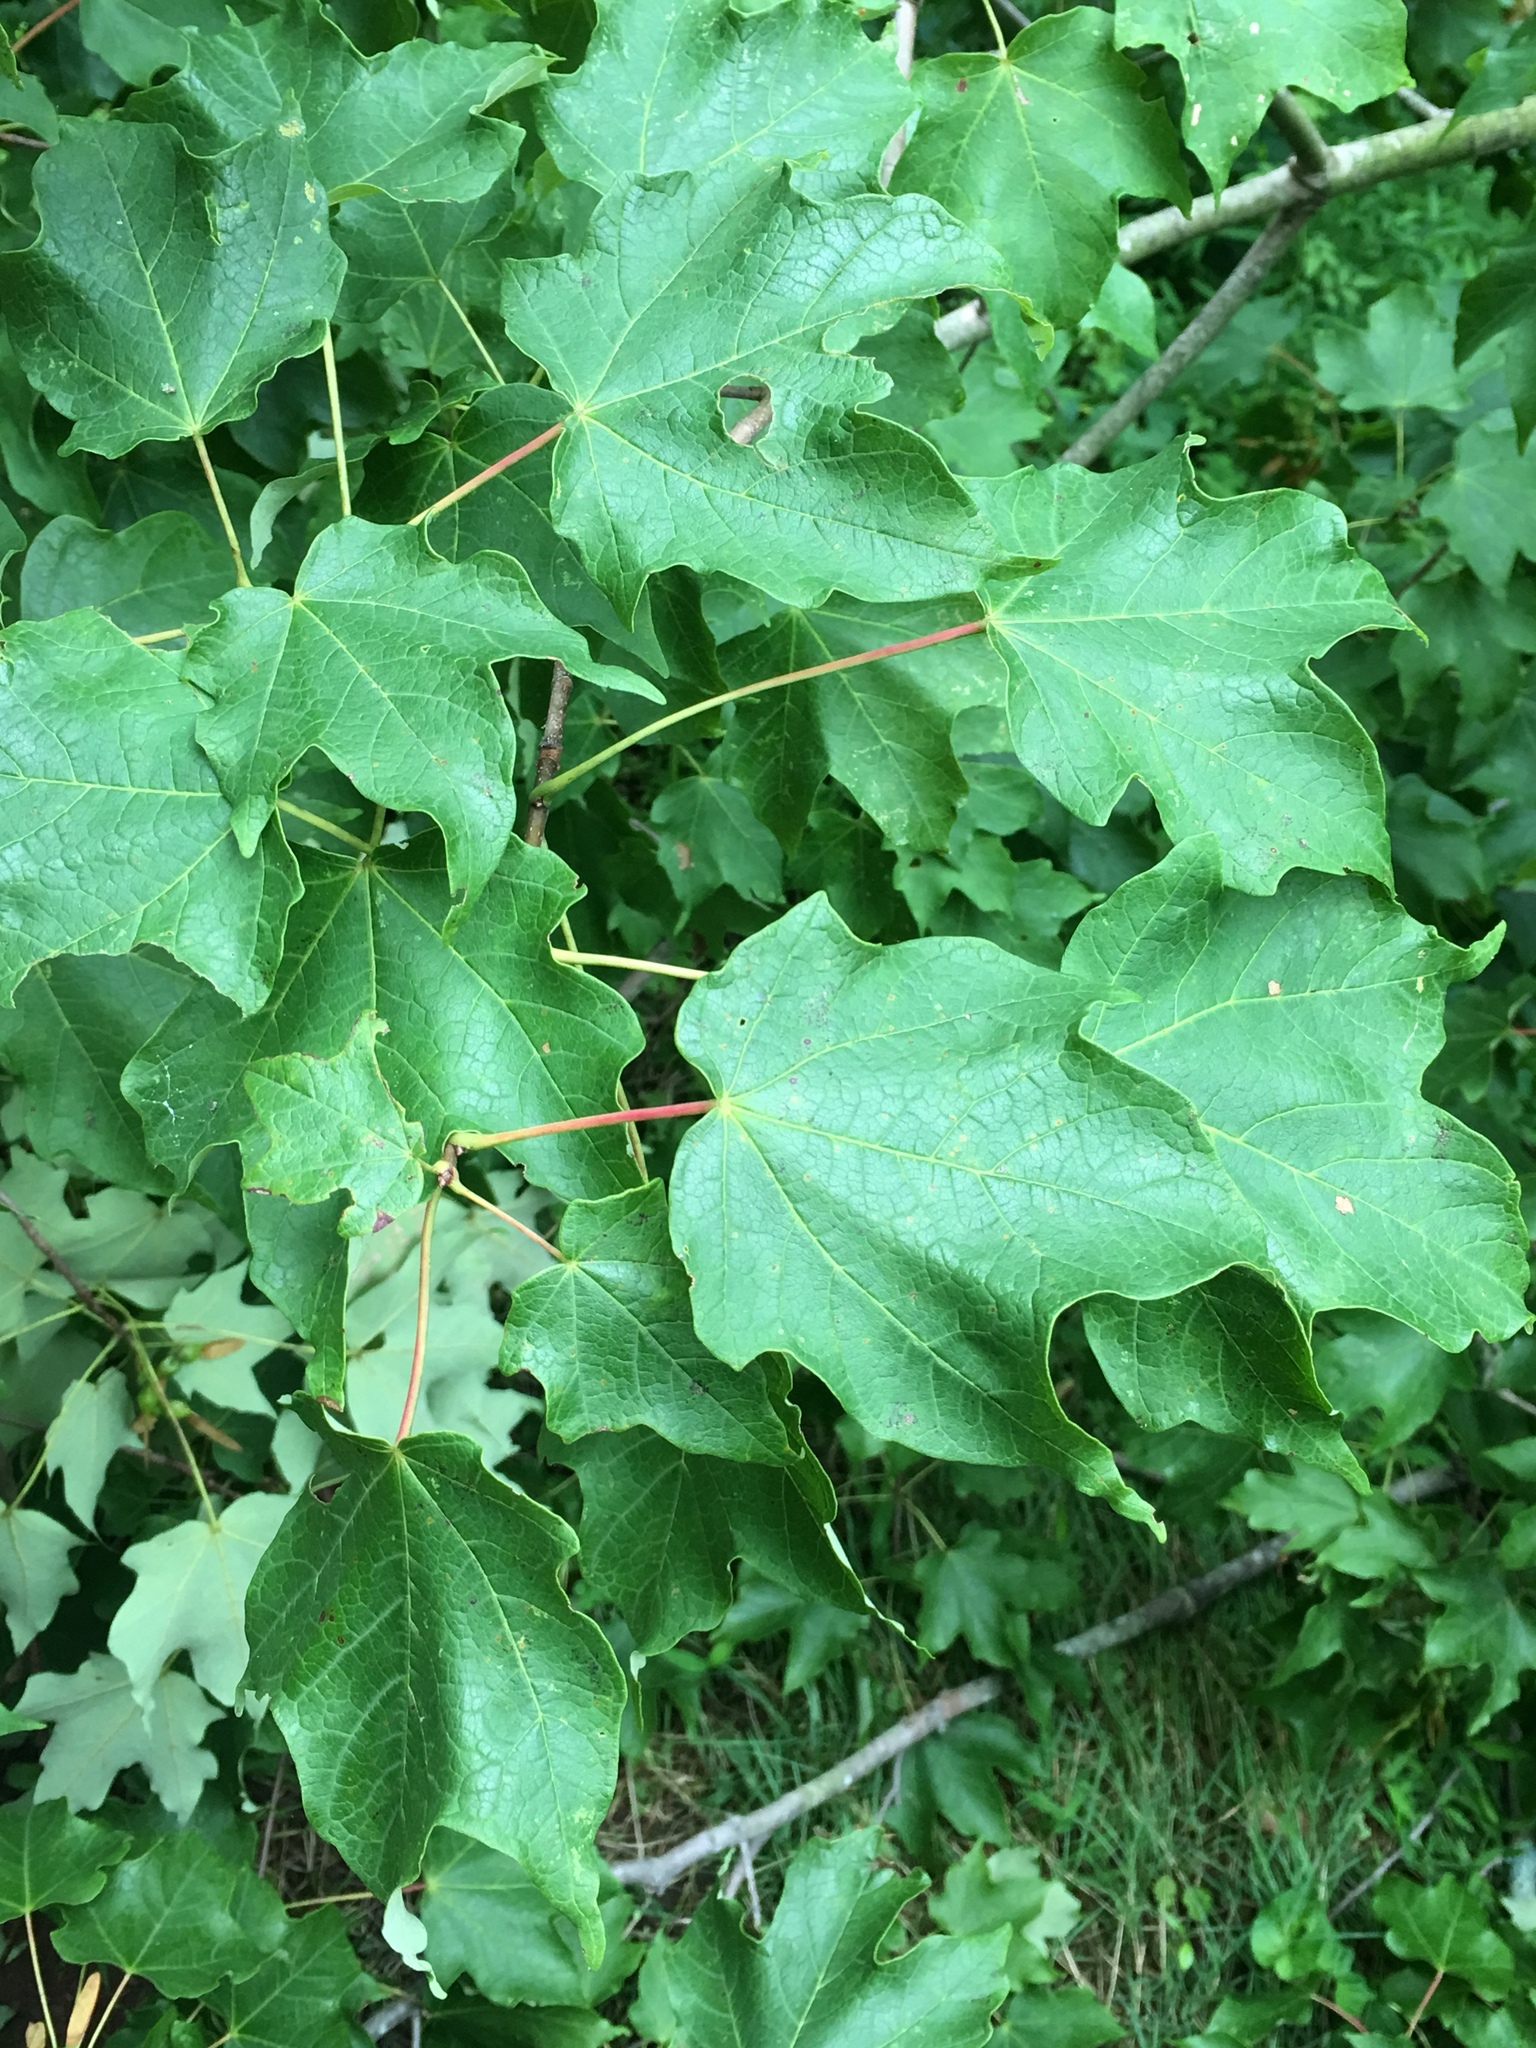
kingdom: Plantae
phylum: Tracheophyta
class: Magnoliopsida
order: Sapindales
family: Sapindaceae
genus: Acer
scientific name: Acer rubrum
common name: Red maple
